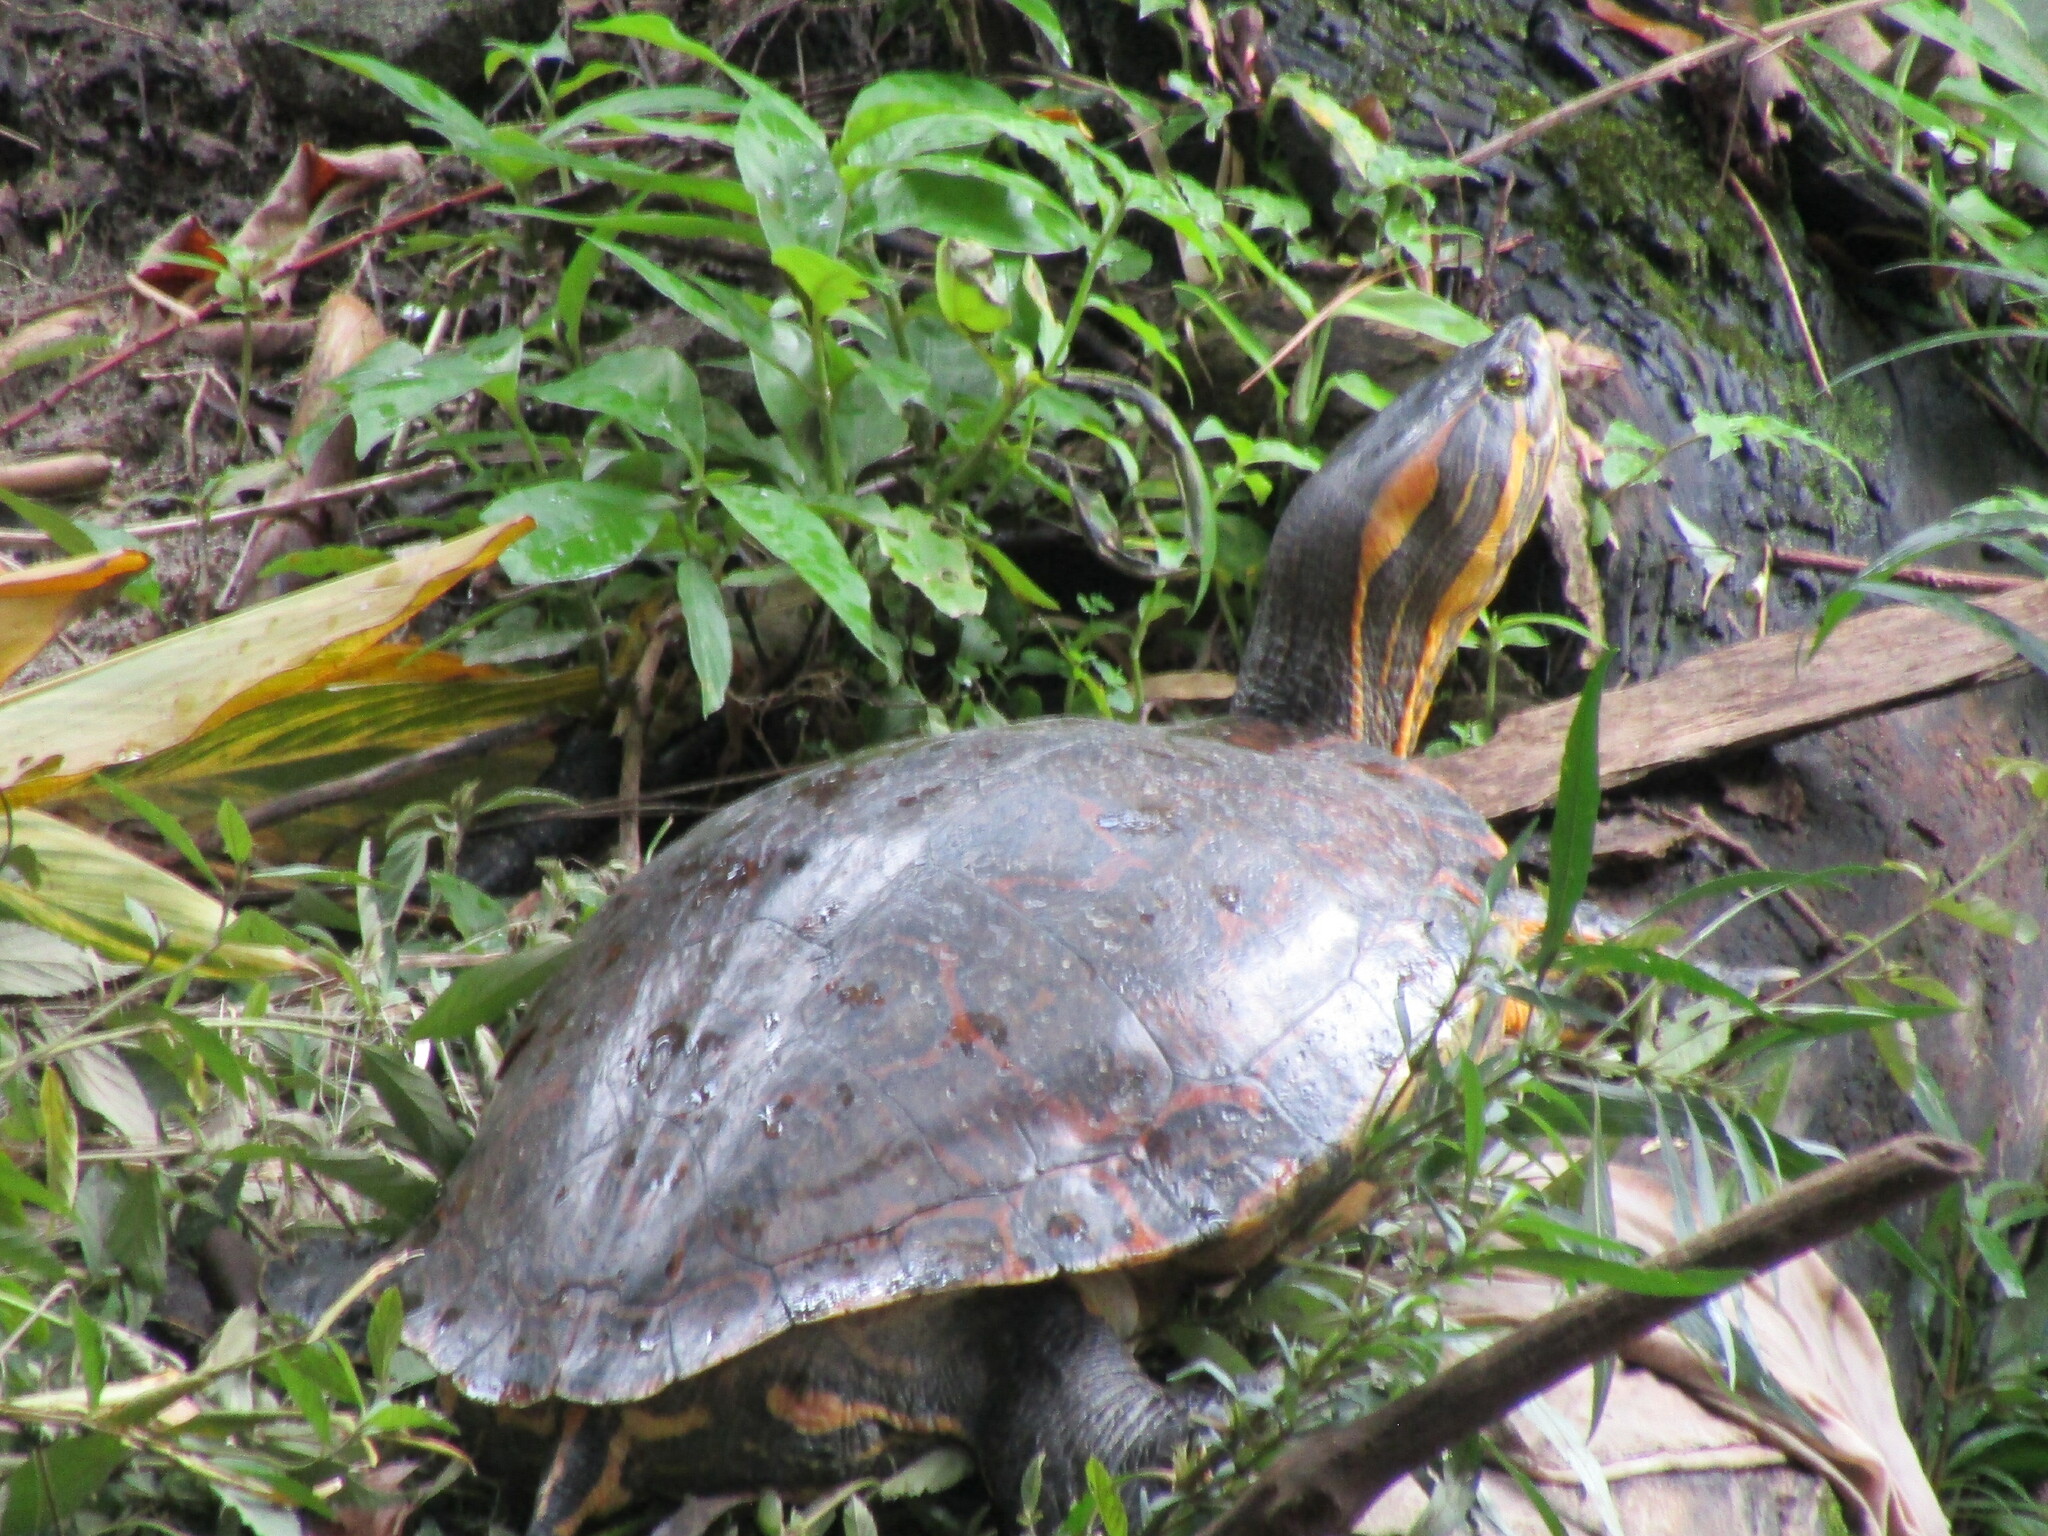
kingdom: Animalia
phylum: Chordata
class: Testudines
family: Emydidae
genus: Trachemys
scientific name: Trachemys grayi
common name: Gray's slider
